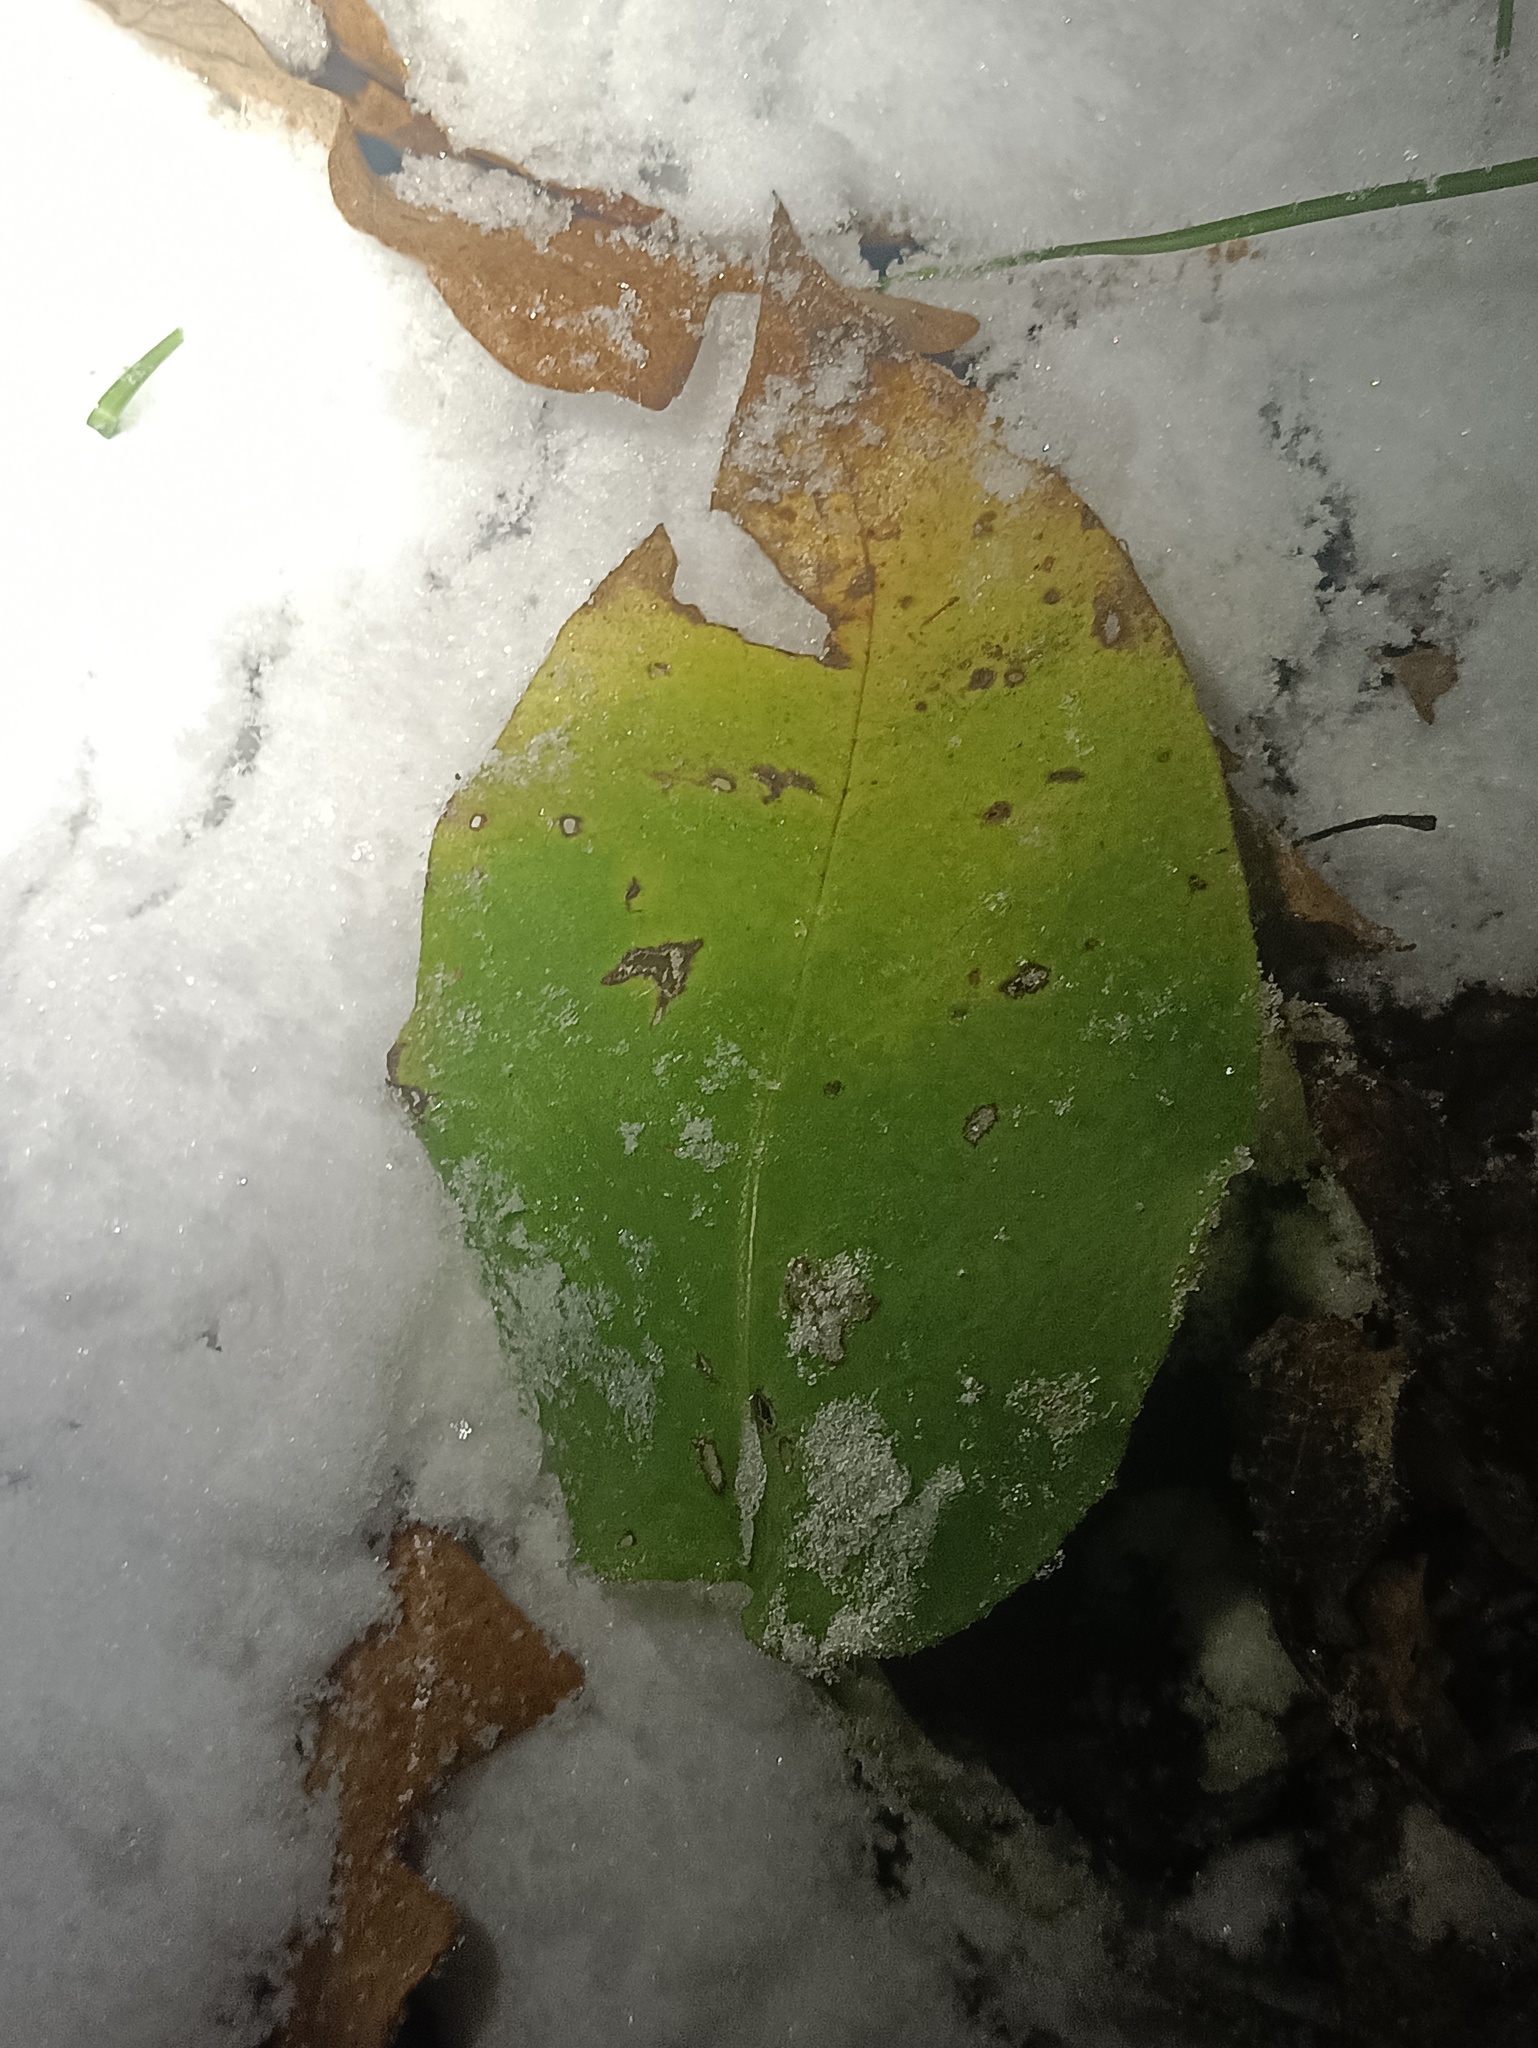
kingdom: Plantae
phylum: Tracheophyta
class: Magnoliopsida
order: Boraginales
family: Boraginaceae
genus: Pulmonaria
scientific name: Pulmonaria obscura
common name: Suffolk lungwort
